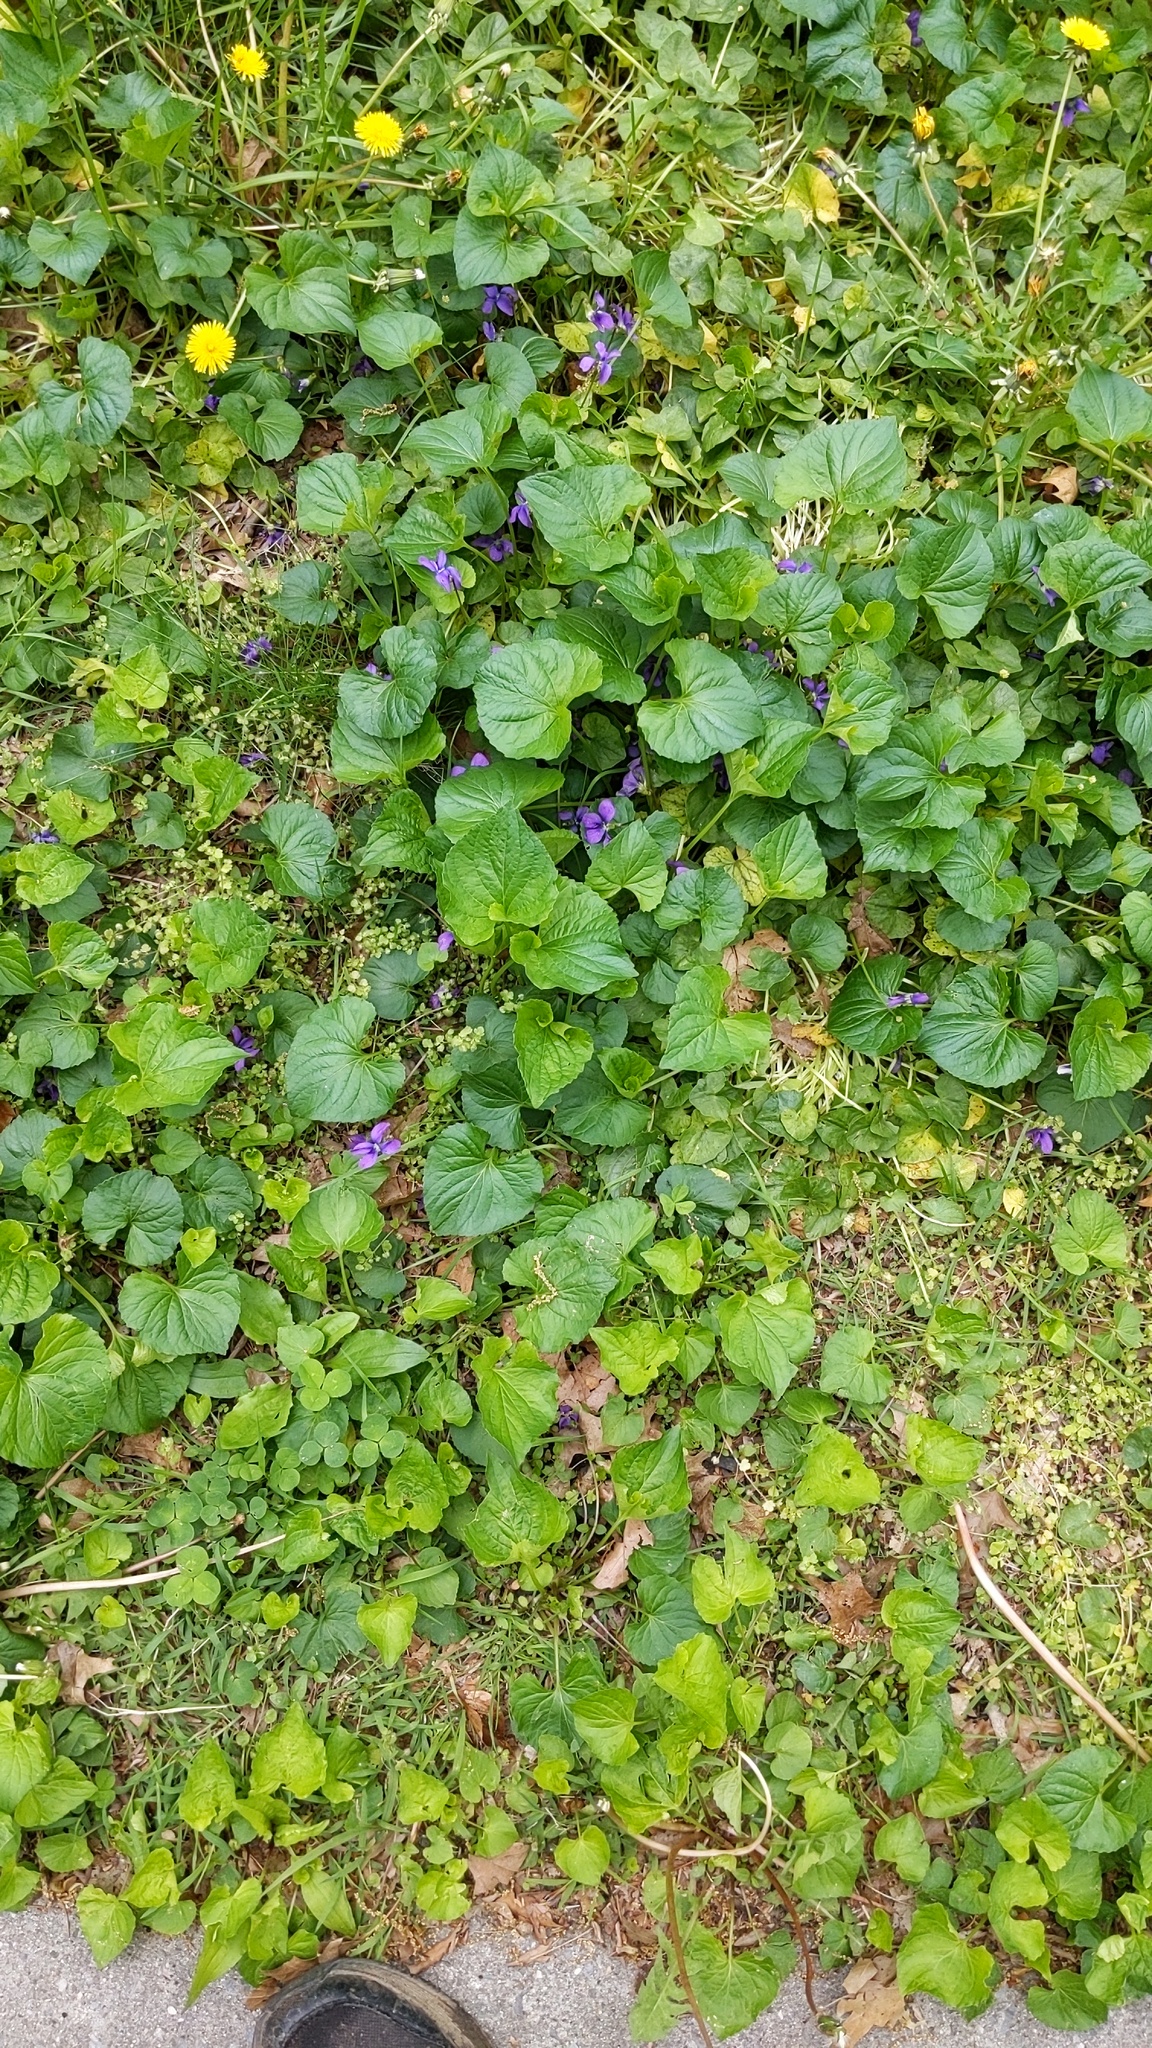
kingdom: Plantae
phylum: Tracheophyta
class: Magnoliopsida
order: Malpighiales
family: Violaceae
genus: Viola
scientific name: Viola sororia
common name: Dooryard violet
